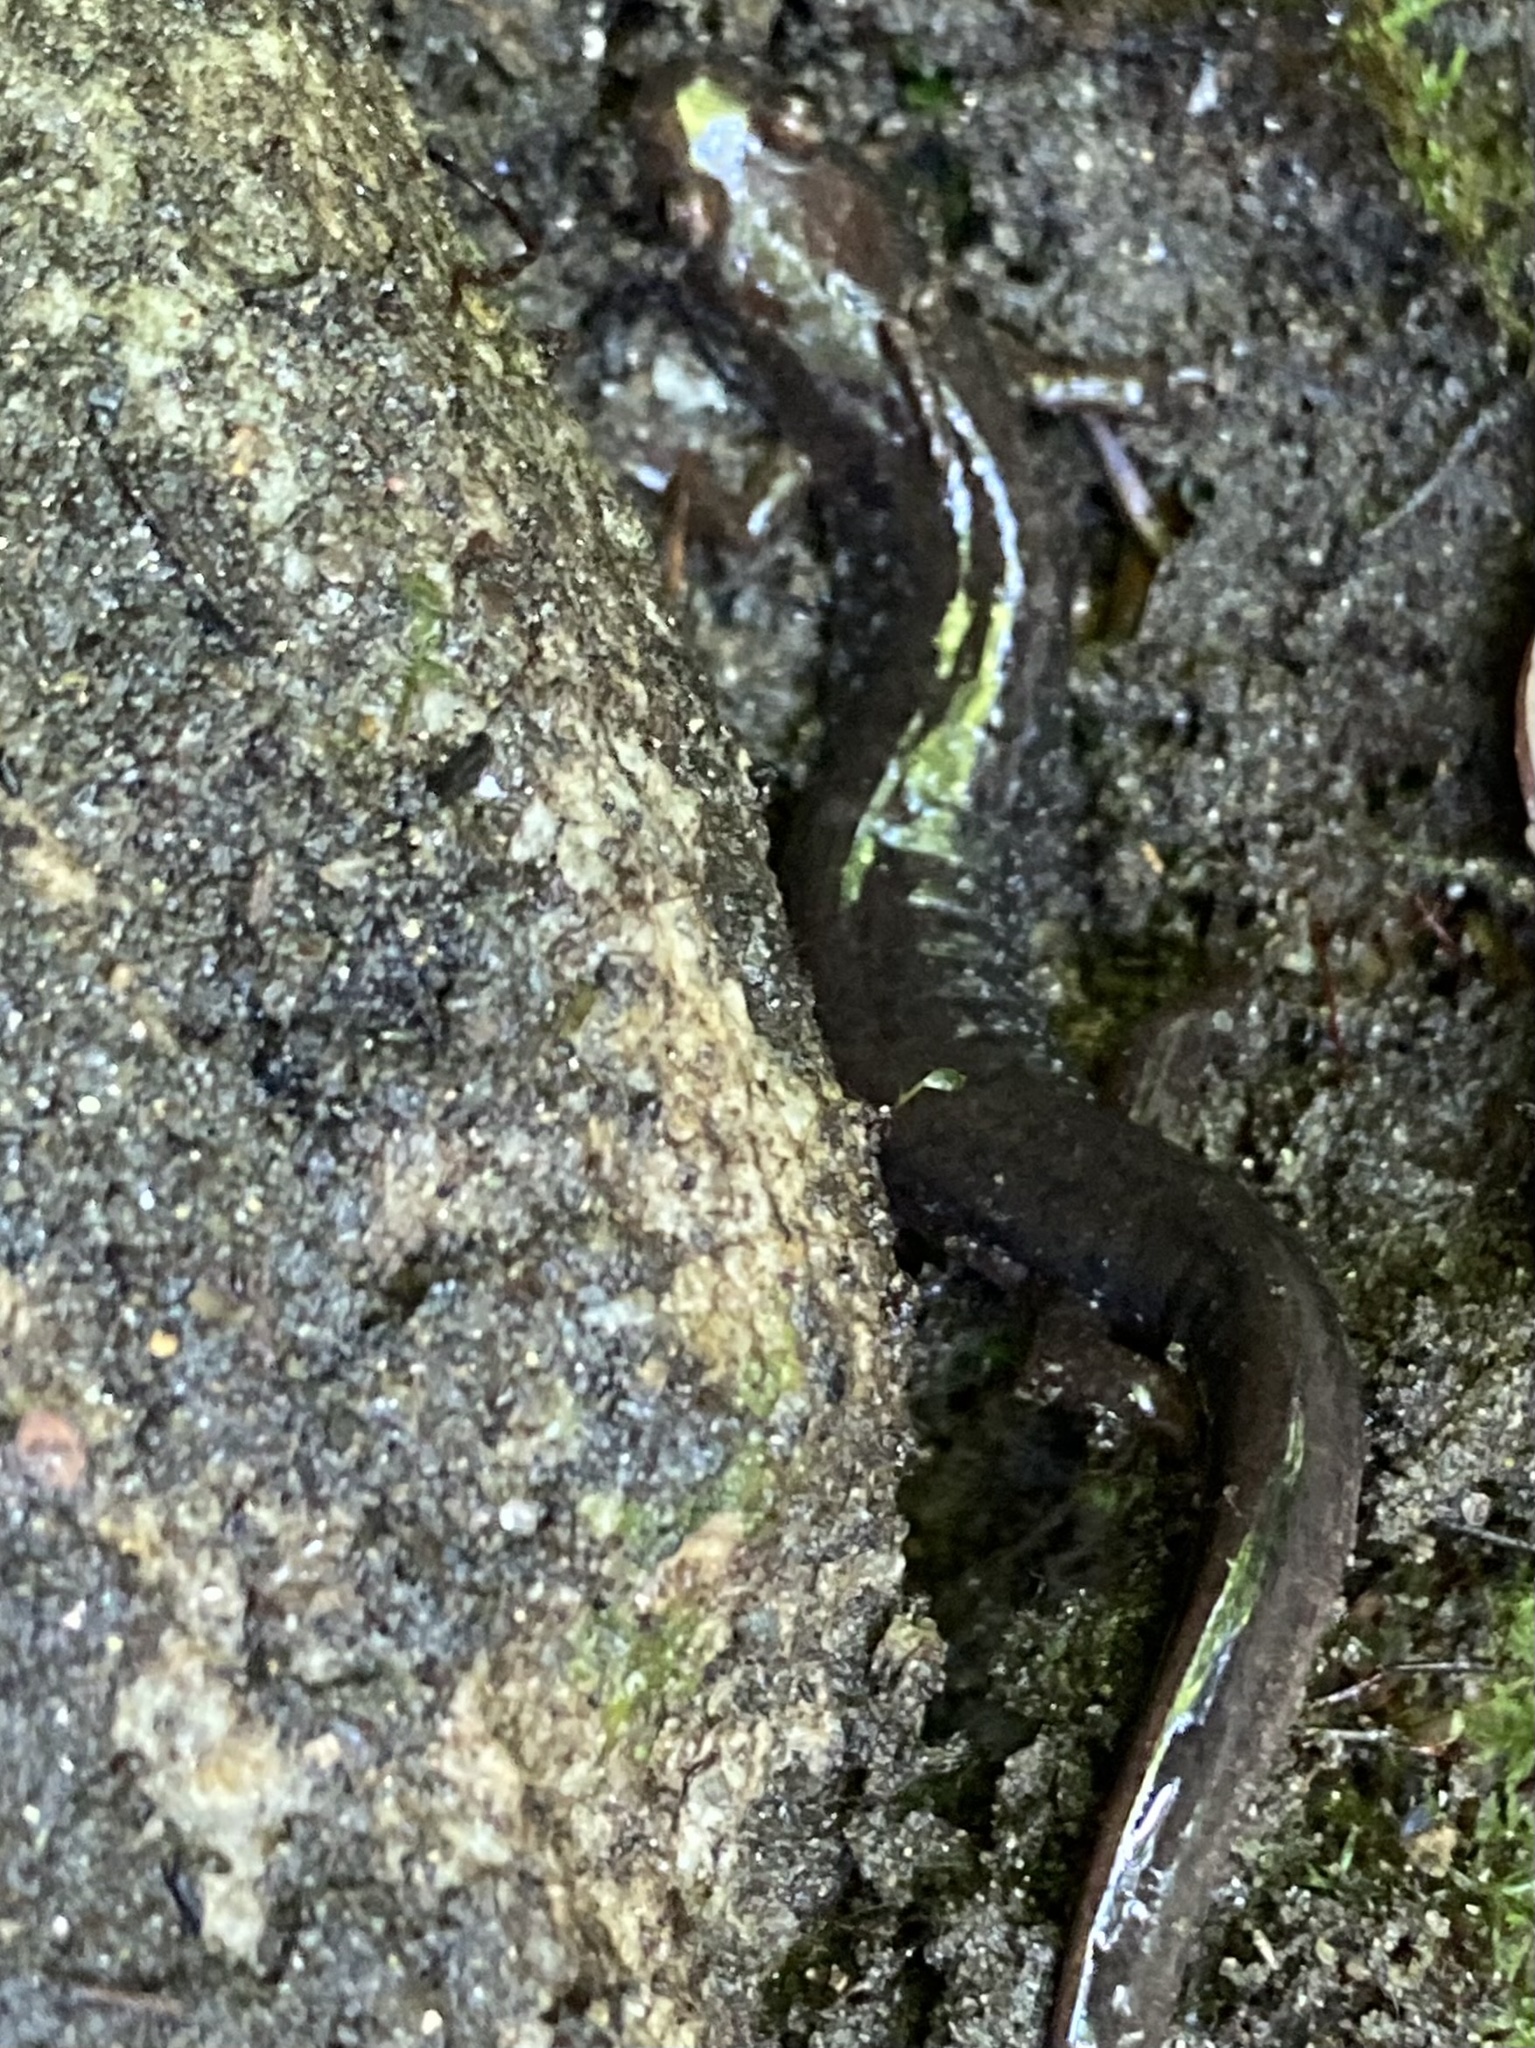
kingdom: Animalia
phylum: Chordata
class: Amphibia
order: Caudata
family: Plethodontidae
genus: Desmognathus
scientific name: Desmognathus fuscus
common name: Northern dusky salamander
